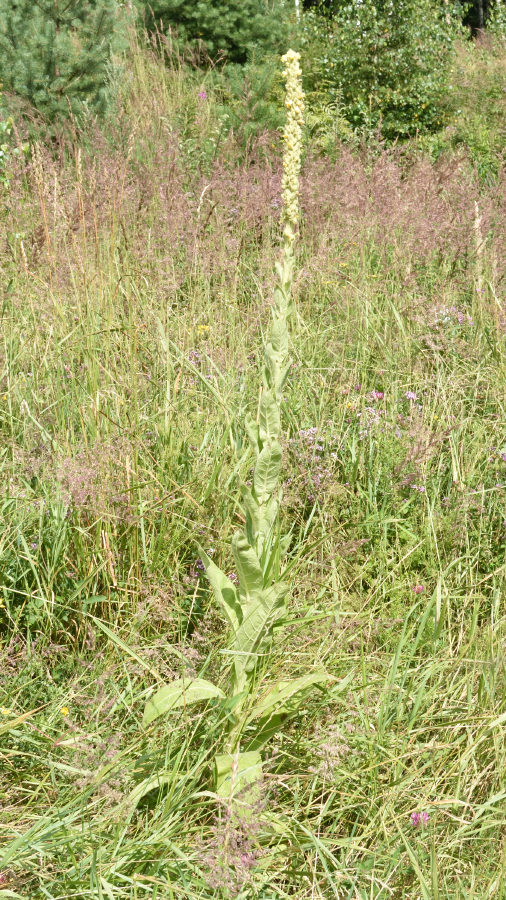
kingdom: Plantae
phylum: Tracheophyta
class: Magnoliopsida
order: Lamiales
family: Scrophulariaceae
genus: Verbascum
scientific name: Verbascum thapsus
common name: Common mullein
